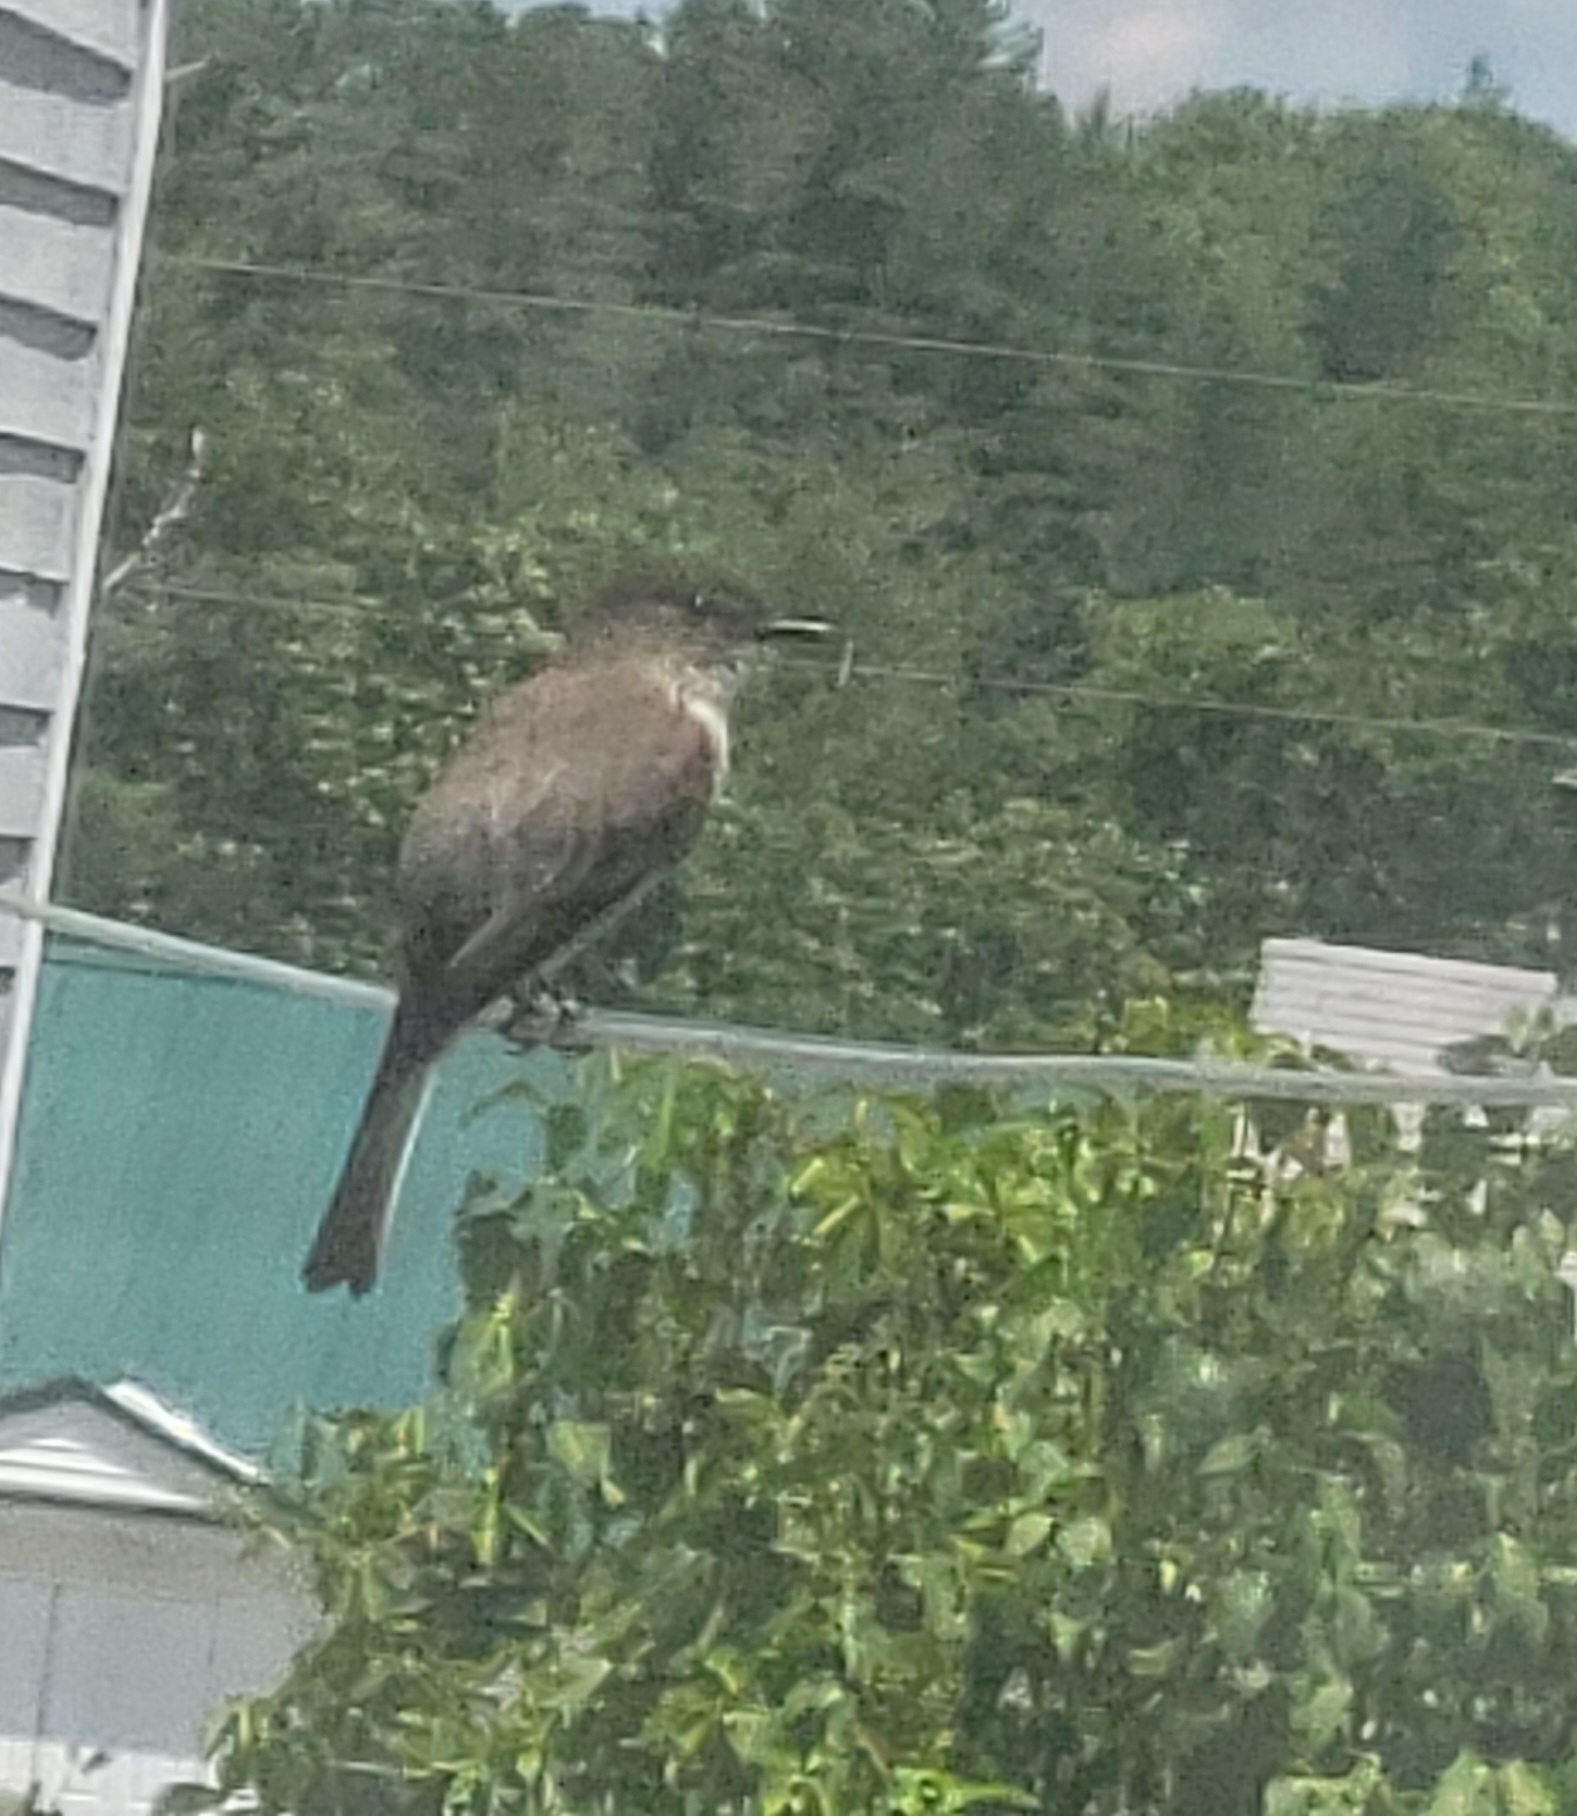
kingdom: Animalia
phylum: Chordata
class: Aves
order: Passeriformes
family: Tyrannidae
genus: Sayornis
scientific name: Sayornis phoebe
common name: Eastern phoebe
